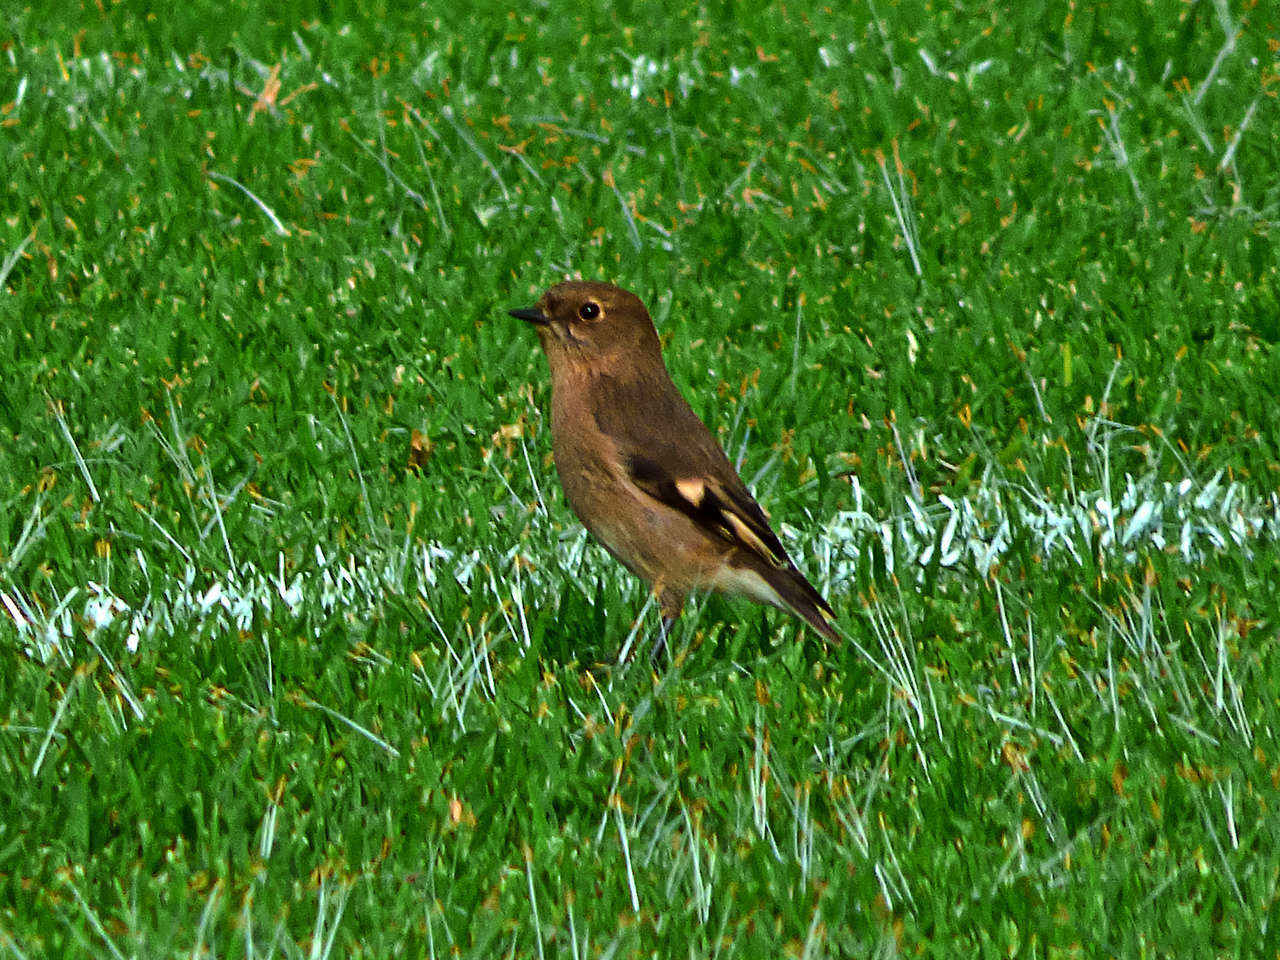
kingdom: Animalia
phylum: Chordata
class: Aves
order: Passeriformes
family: Petroicidae
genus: Petroica
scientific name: Petroica phoenicea
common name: Flame robin
